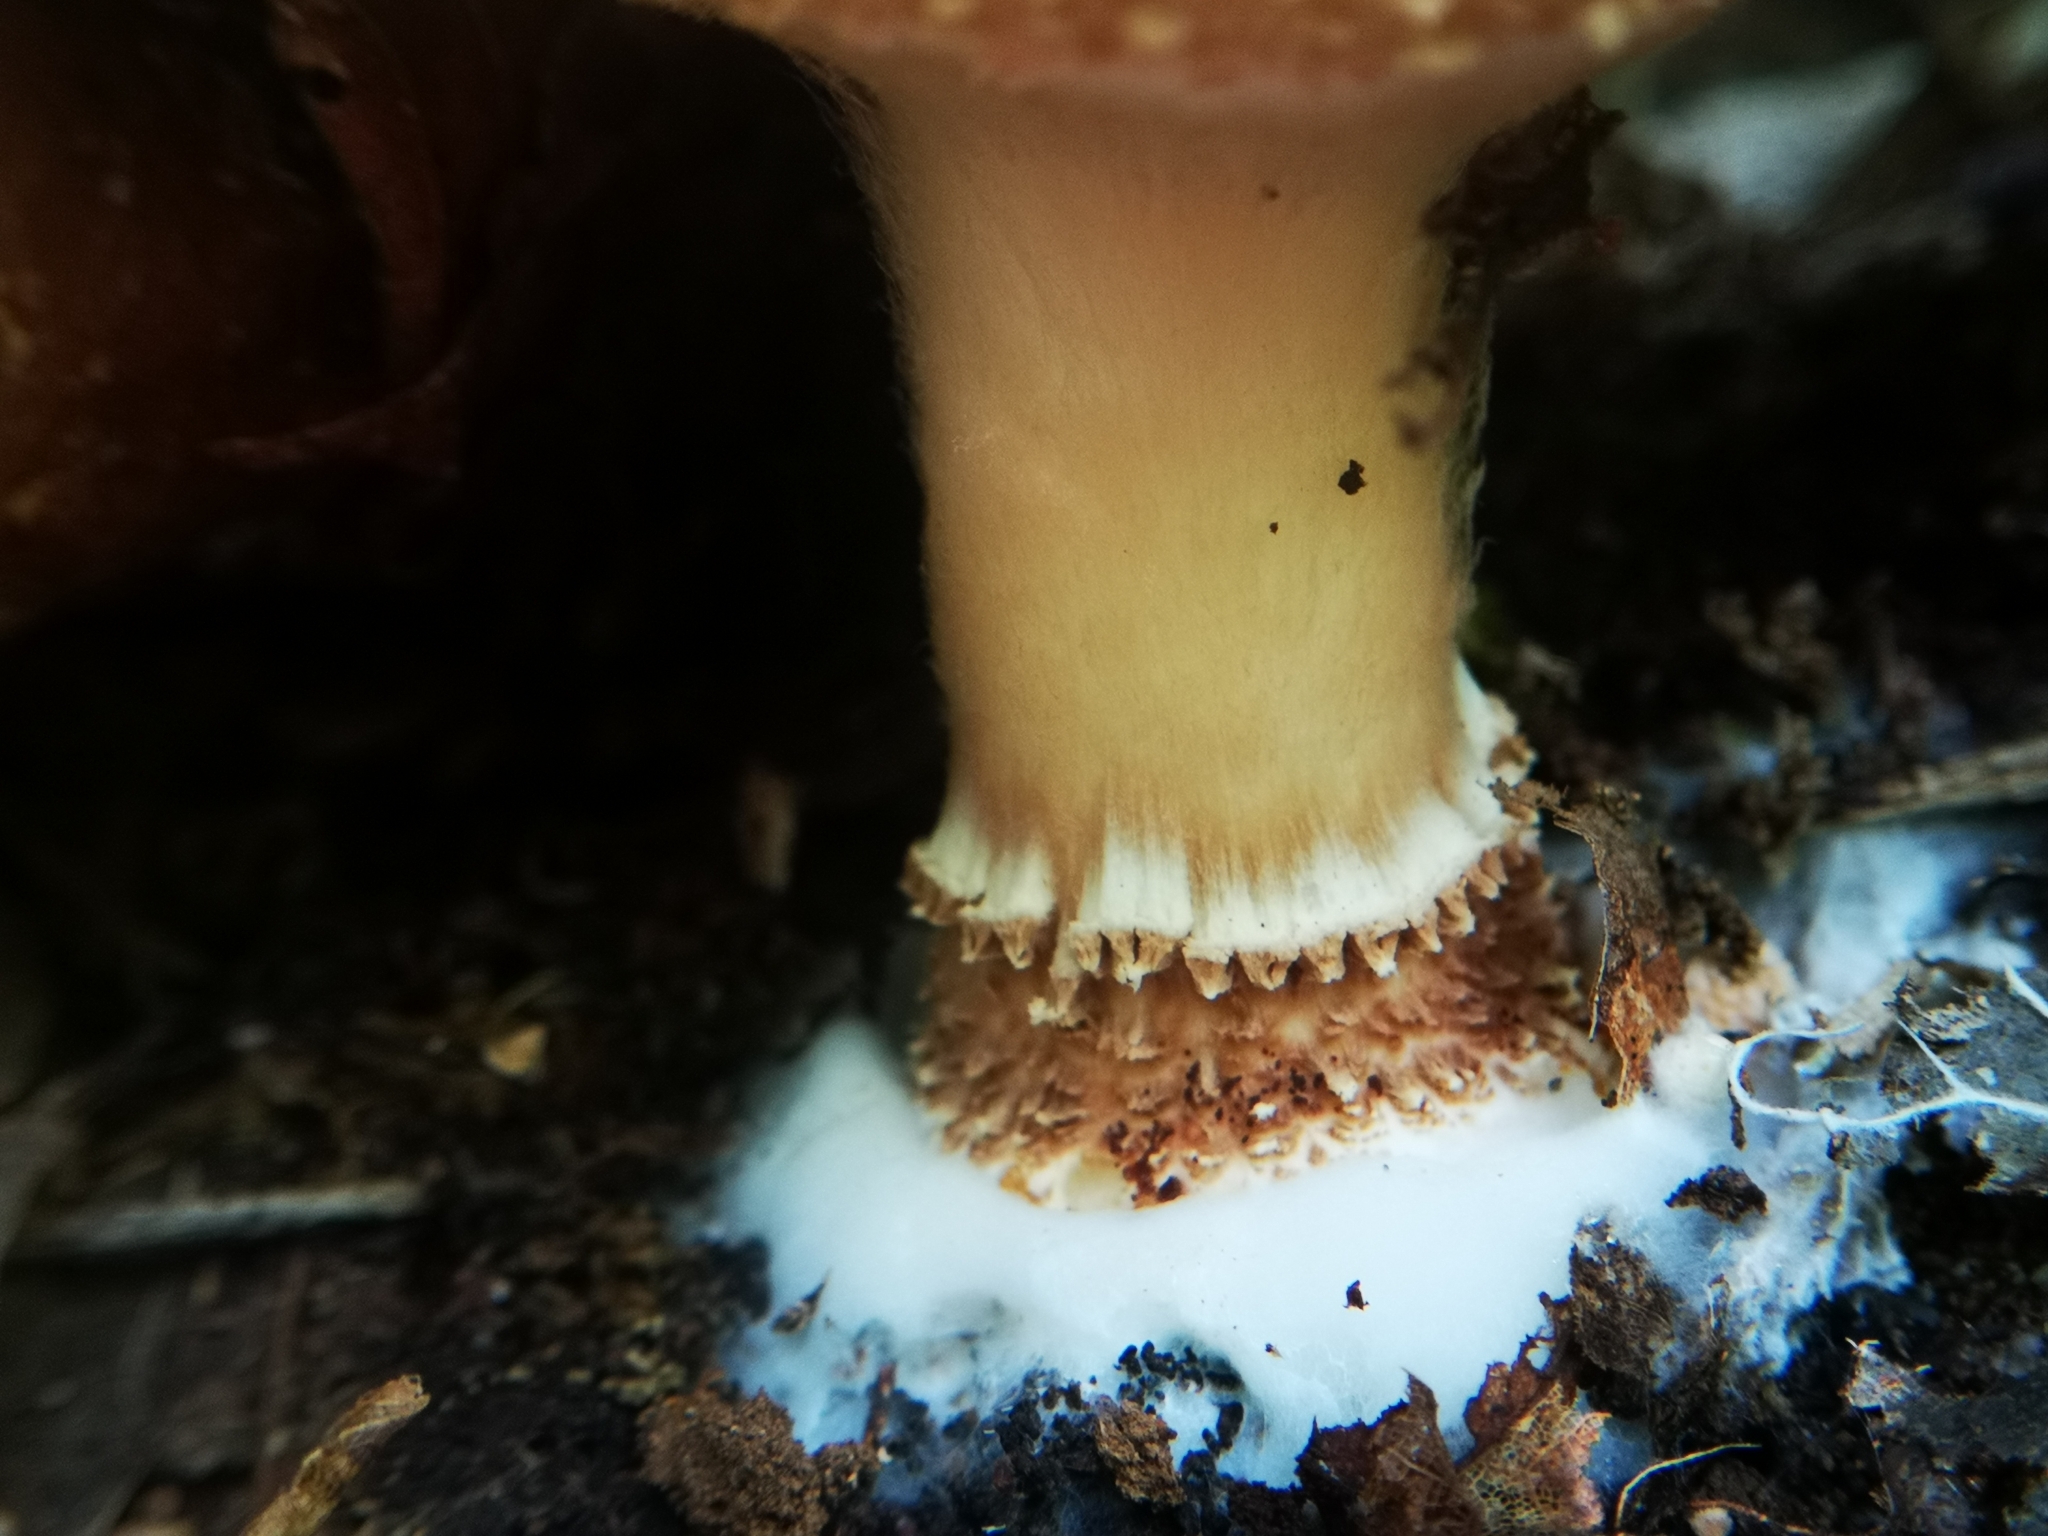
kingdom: Fungi
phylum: Basidiomycota
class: Agaricomycetes
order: Agaricales
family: Agaricaceae
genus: Echinoderma
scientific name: Echinoderma asperum
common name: Freckled dapperling
